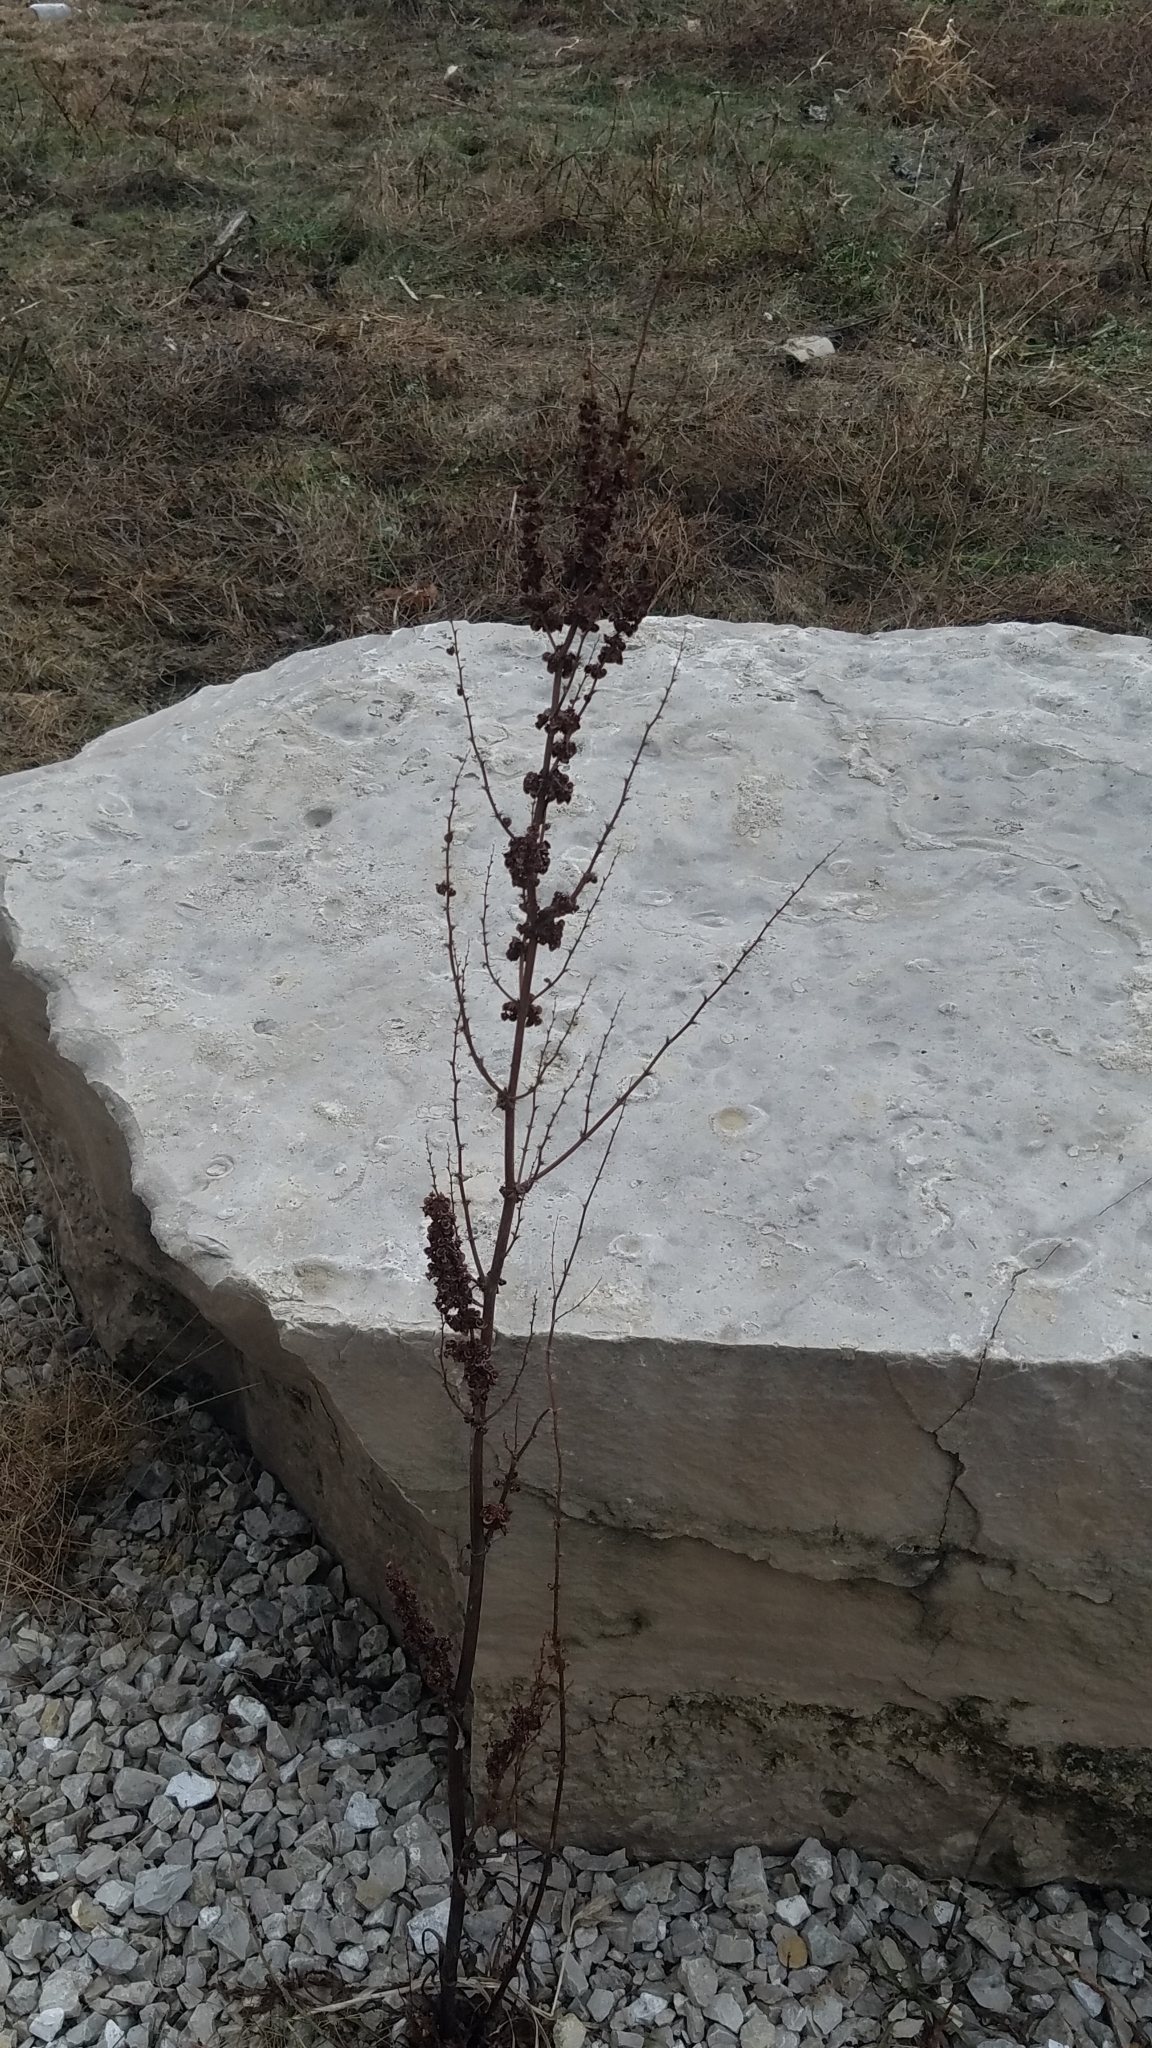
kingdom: Plantae
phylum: Tracheophyta
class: Magnoliopsida
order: Caryophyllales
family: Polygonaceae
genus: Rumex
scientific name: Rumex crispus
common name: Curled dock
